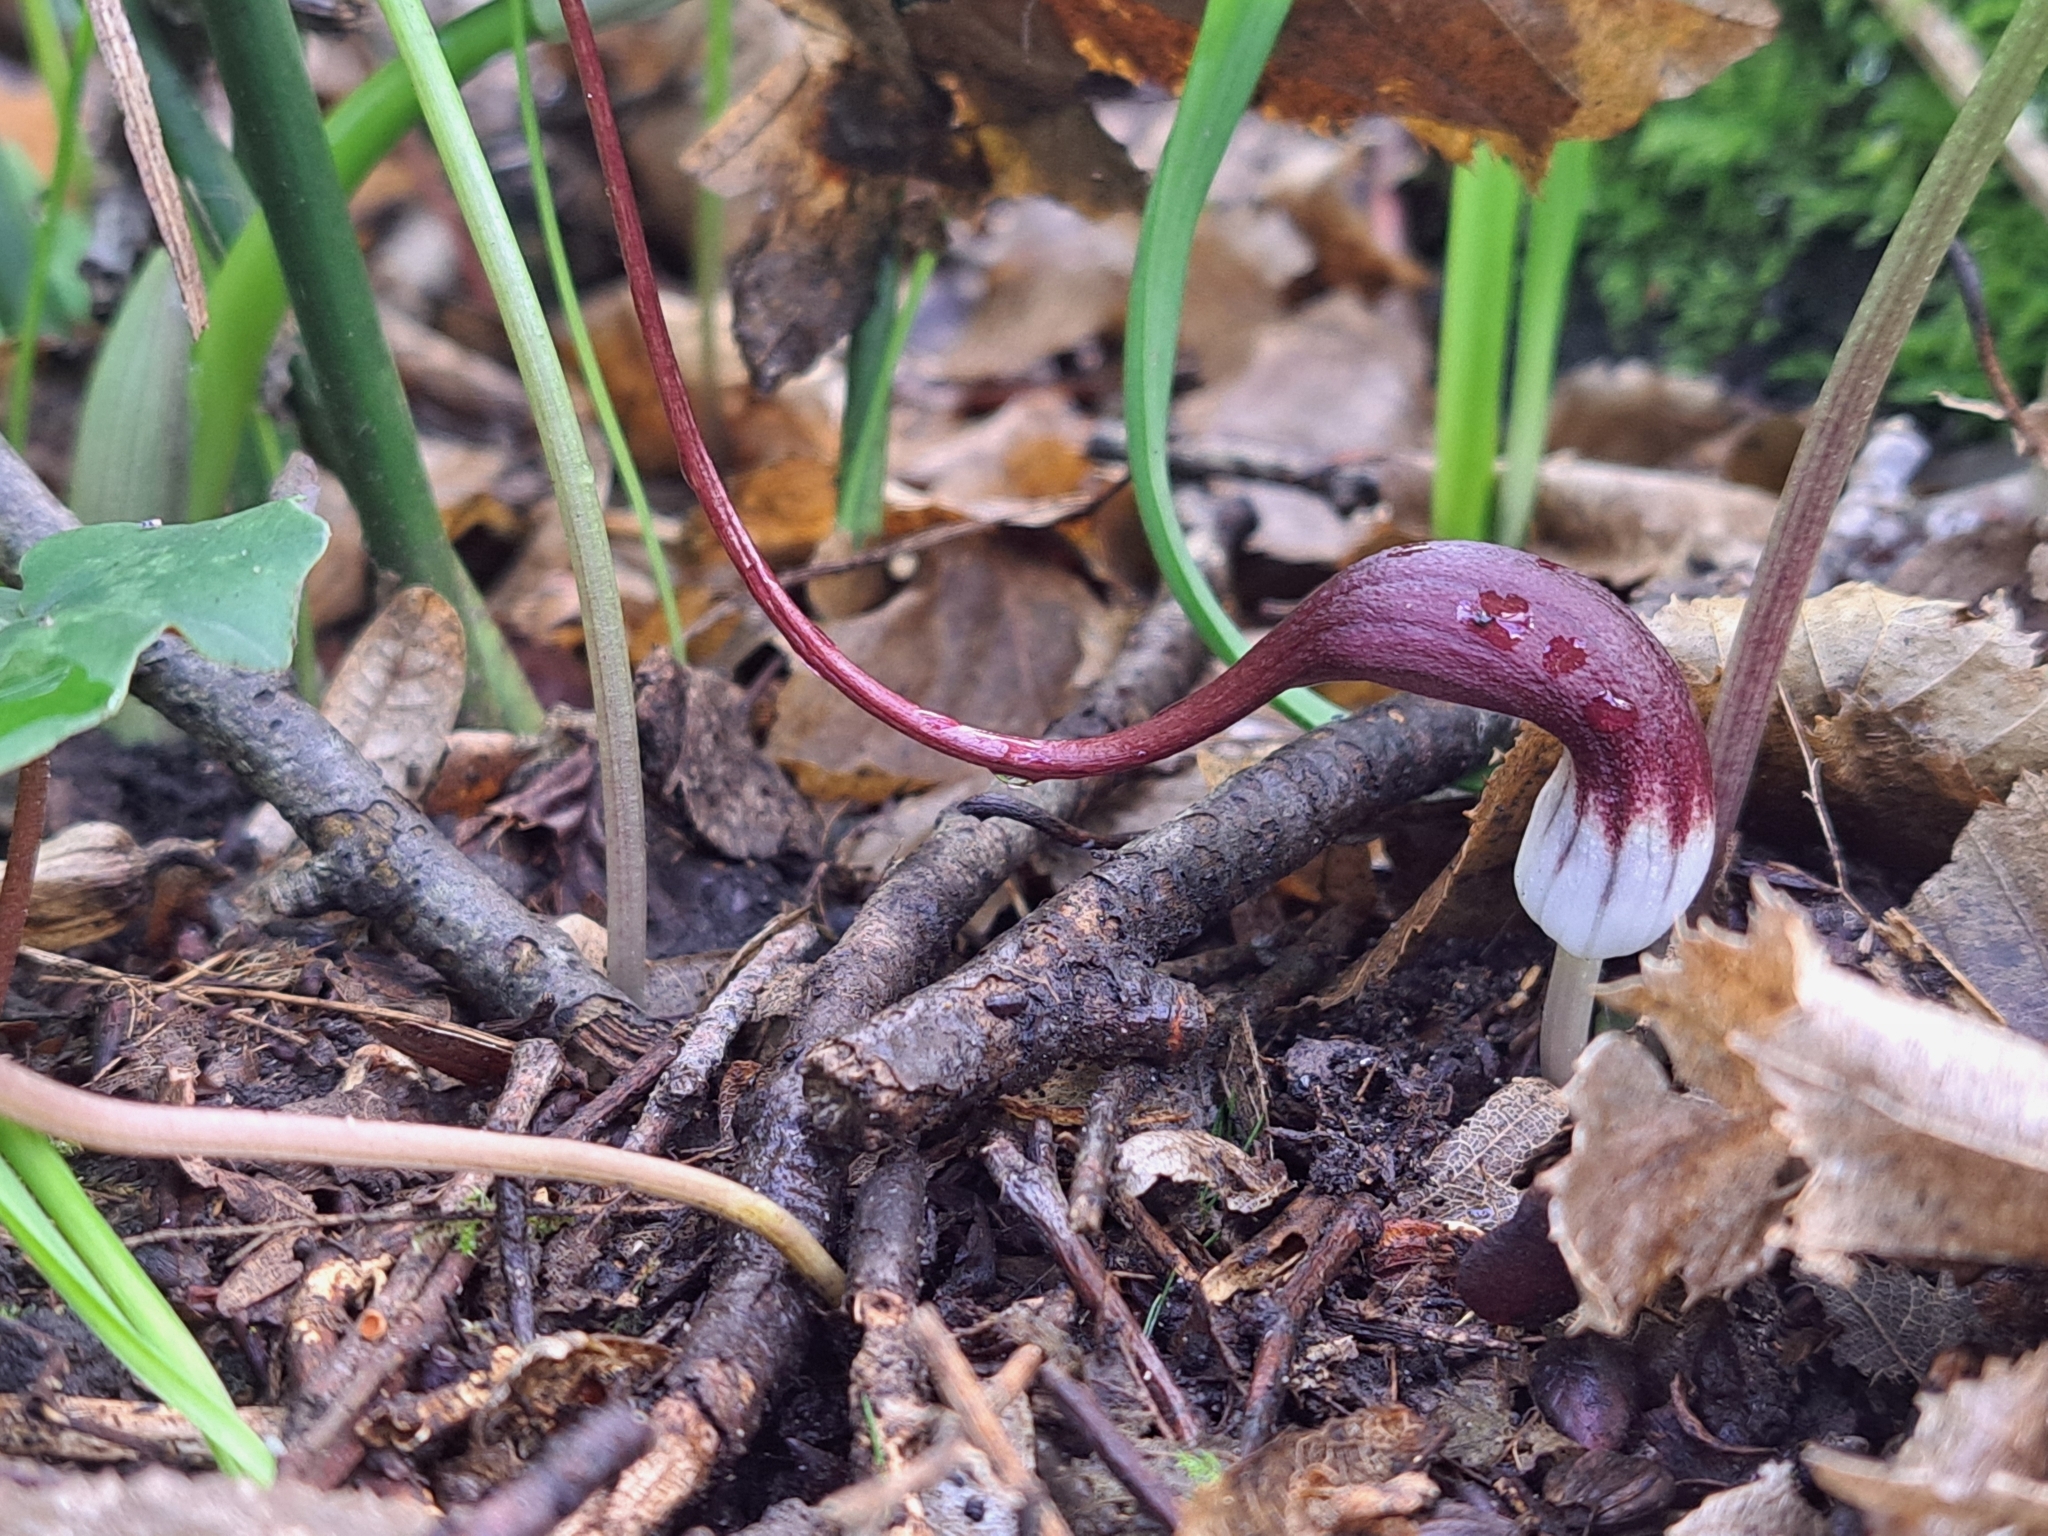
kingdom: Plantae
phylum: Tracheophyta
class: Liliopsida
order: Alismatales
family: Araceae
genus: Arisarum
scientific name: Arisarum proboscideum
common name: Mousetailplant
